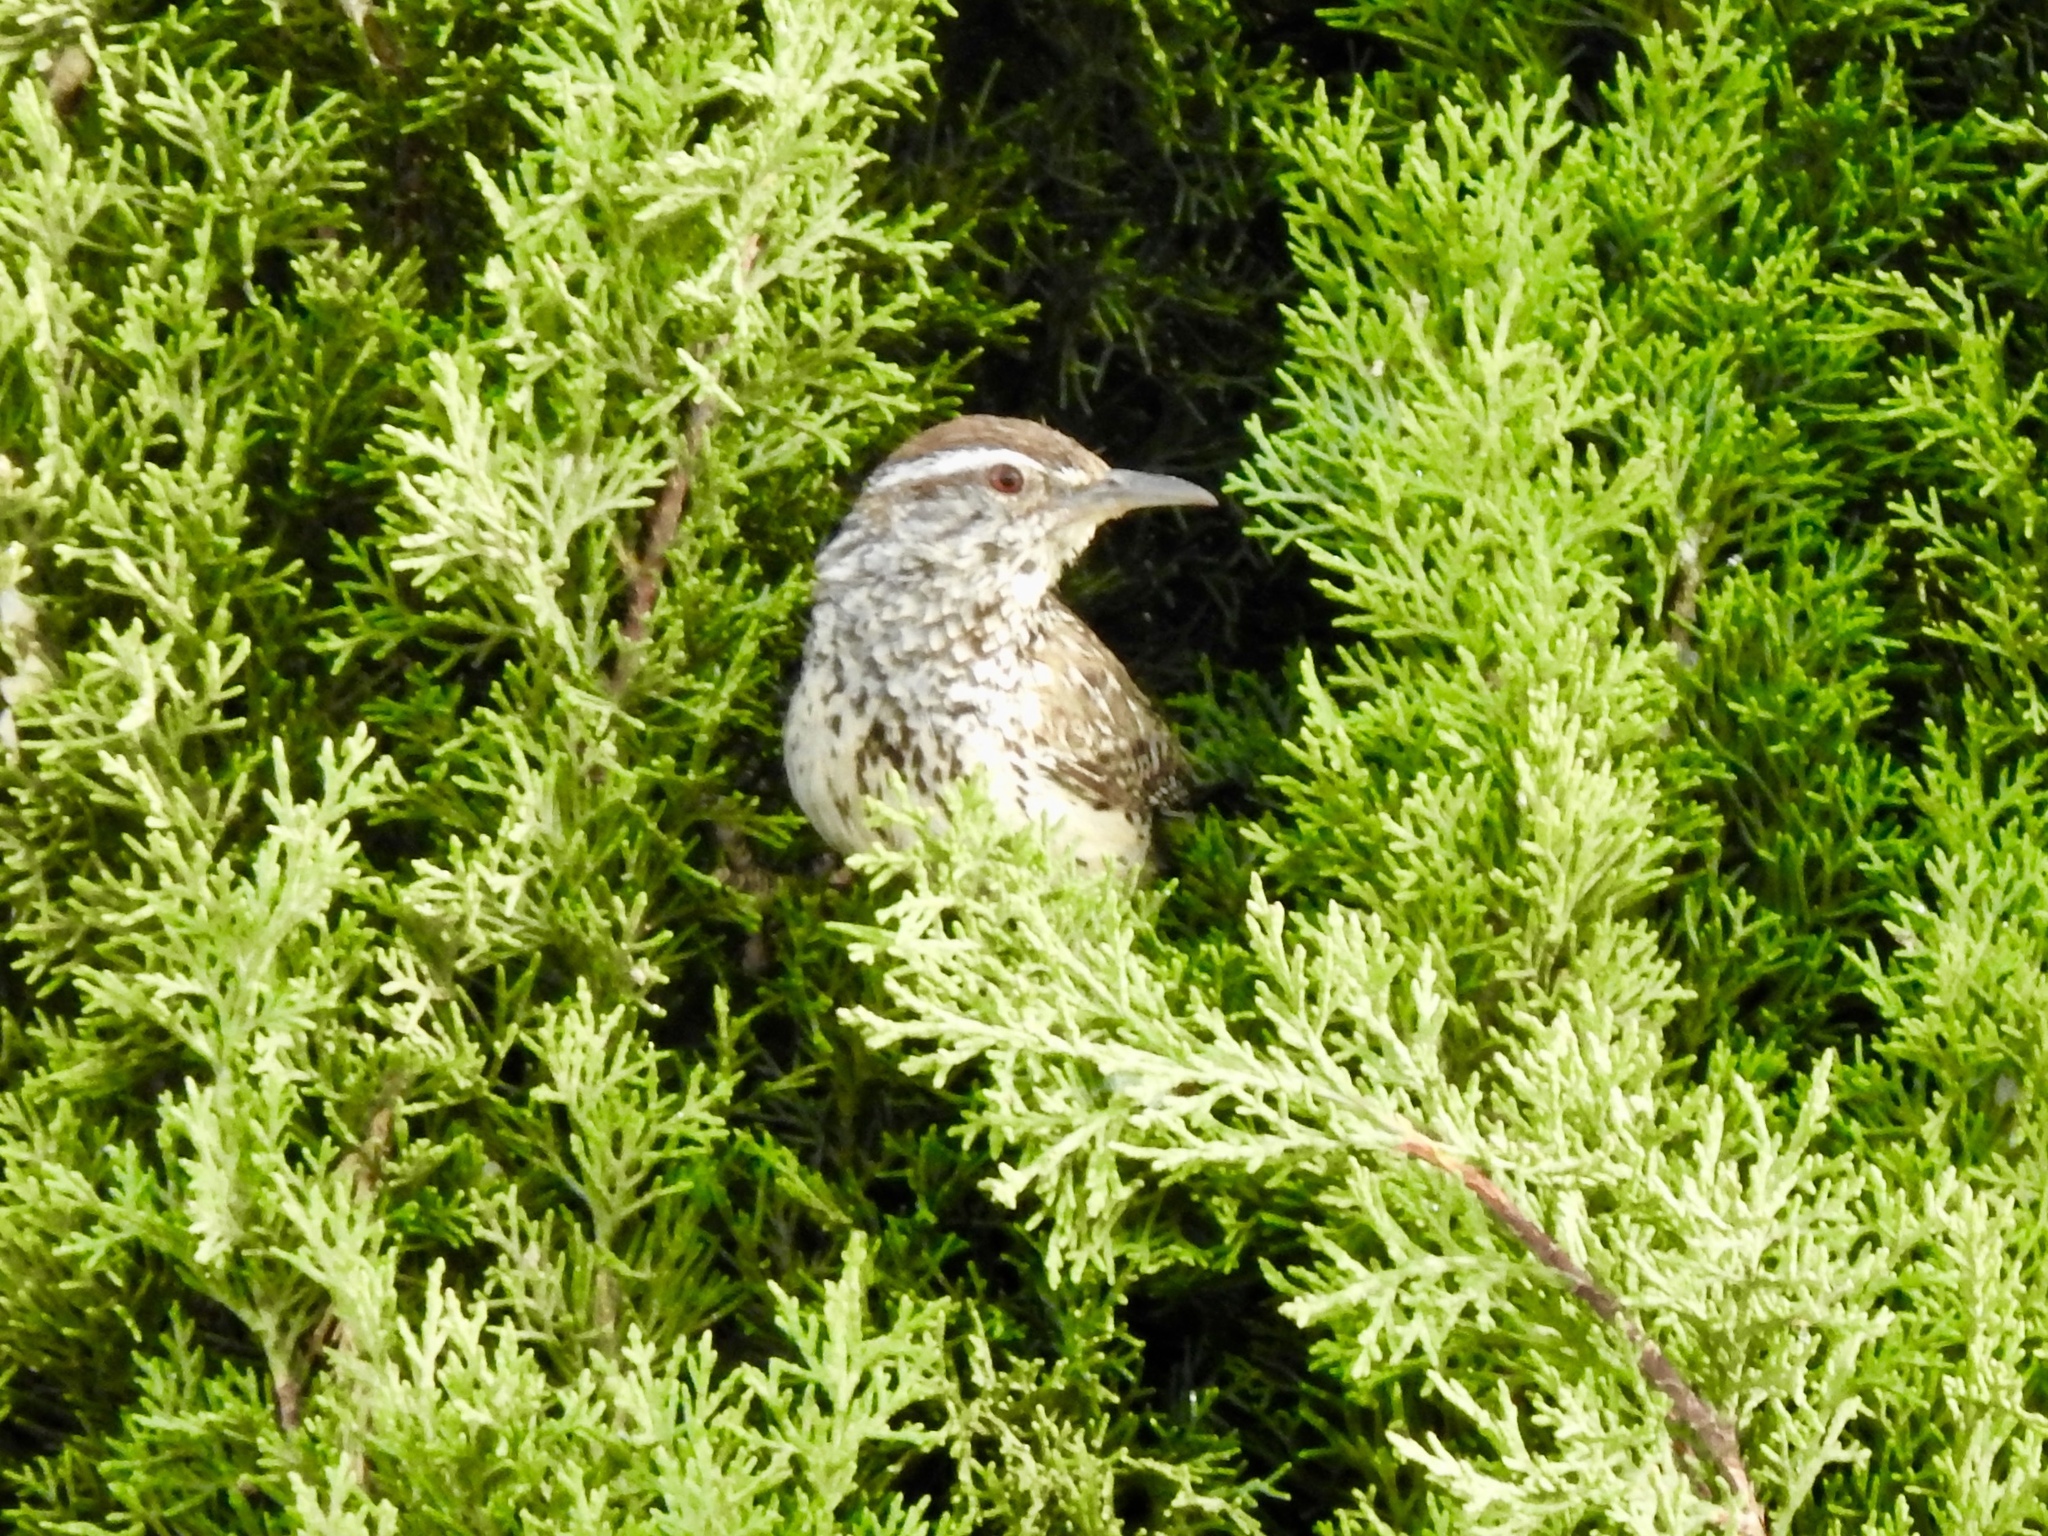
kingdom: Animalia
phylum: Chordata
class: Aves
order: Passeriformes
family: Troglodytidae
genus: Campylorhynchus
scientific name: Campylorhynchus brunneicapillus
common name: Cactus wren
